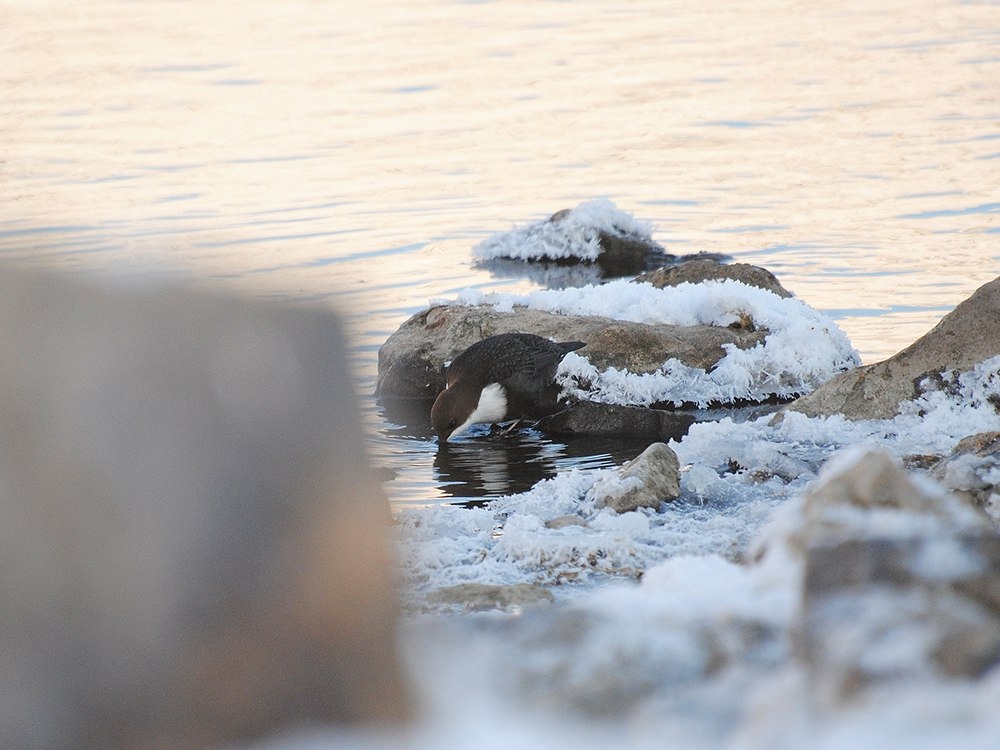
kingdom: Animalia
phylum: Chordata
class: Aves
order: Passeriformes
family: Cinclidae
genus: Cinclus
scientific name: Cinclus cinclus
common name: White-throated dipper
